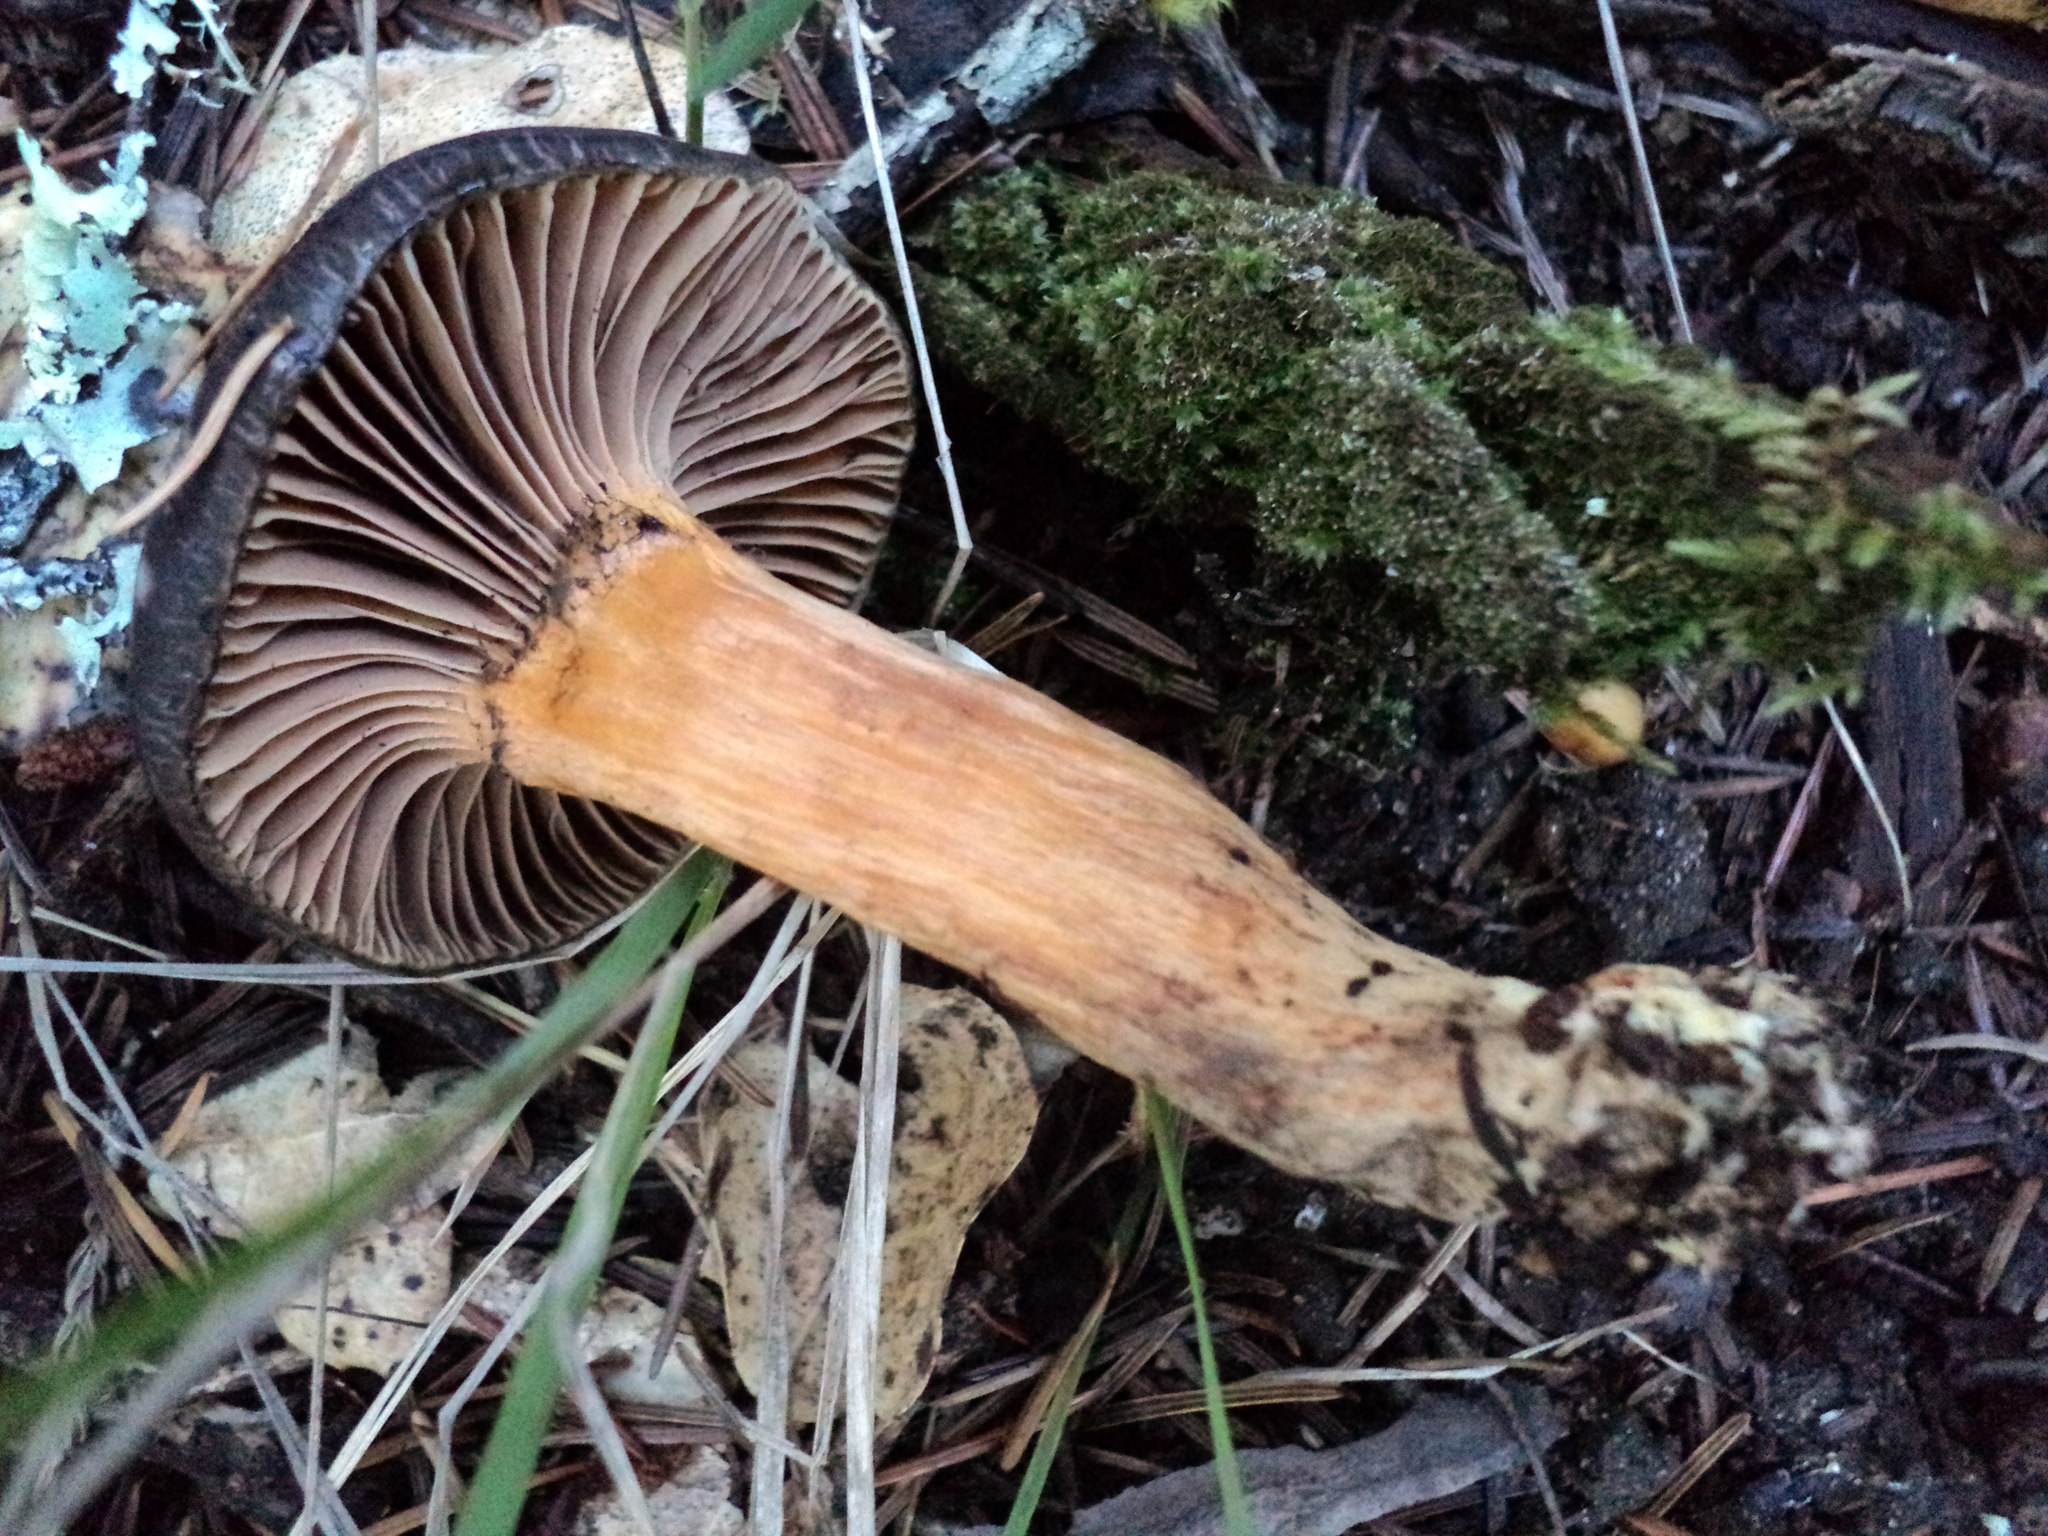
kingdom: Fungi
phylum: Basidiomycota
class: Agaricomycetes
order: Boletales
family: Gomphidiaceae
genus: Chroogomphus
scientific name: Chroogomphus ochraceus
